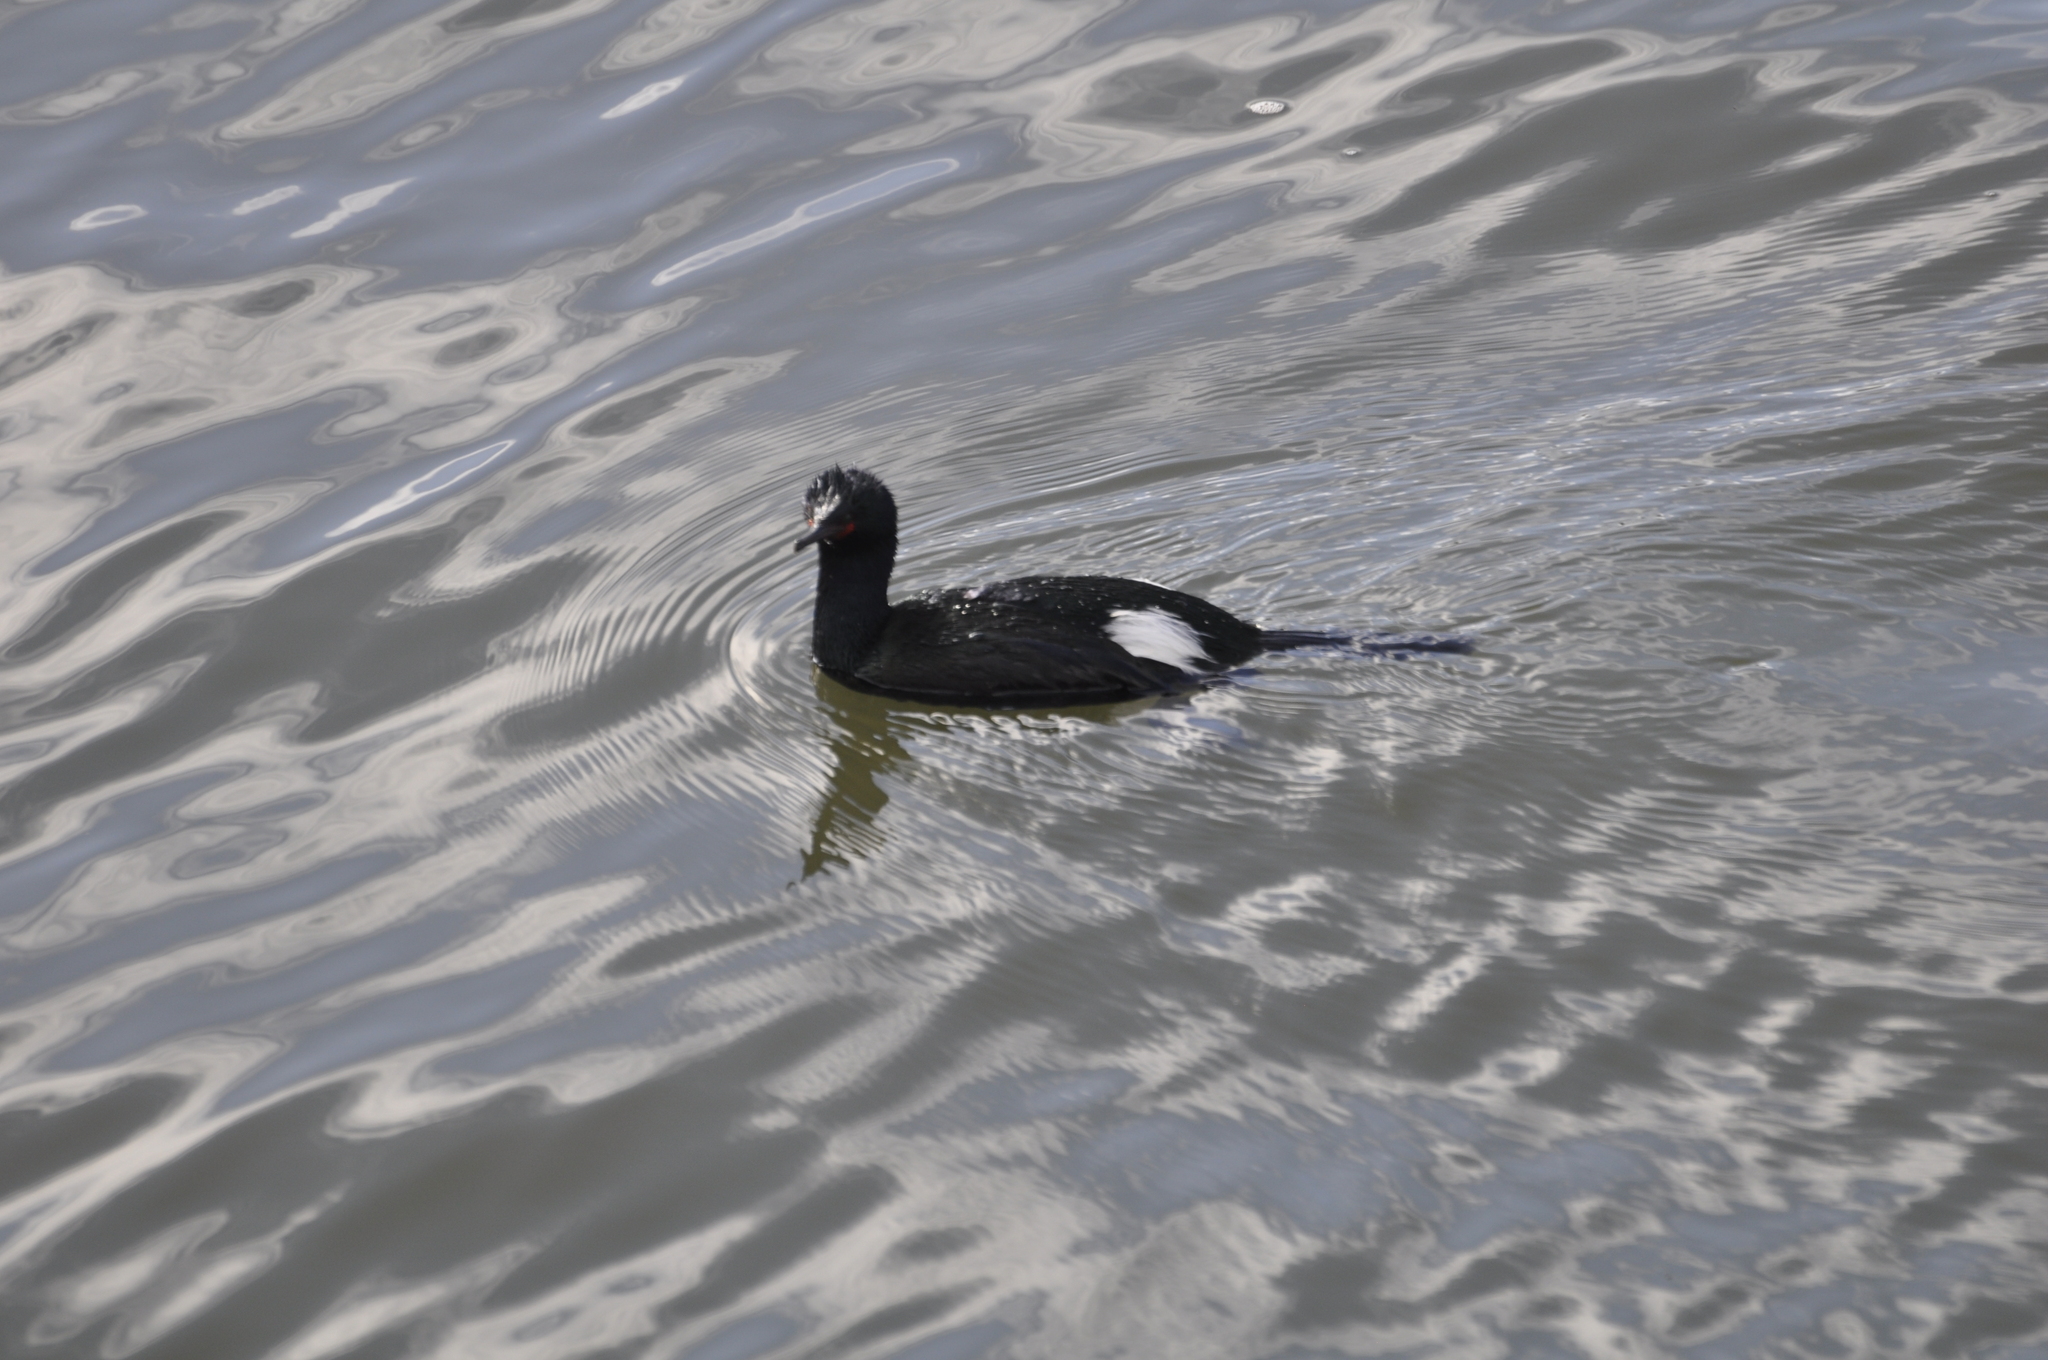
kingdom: Animalia
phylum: Chordata
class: Aves
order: Suliformes
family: Phalacrocoracidae
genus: Phalacrocorax
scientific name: Phalacrocorax pelagicus
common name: Pelagic cormorant
